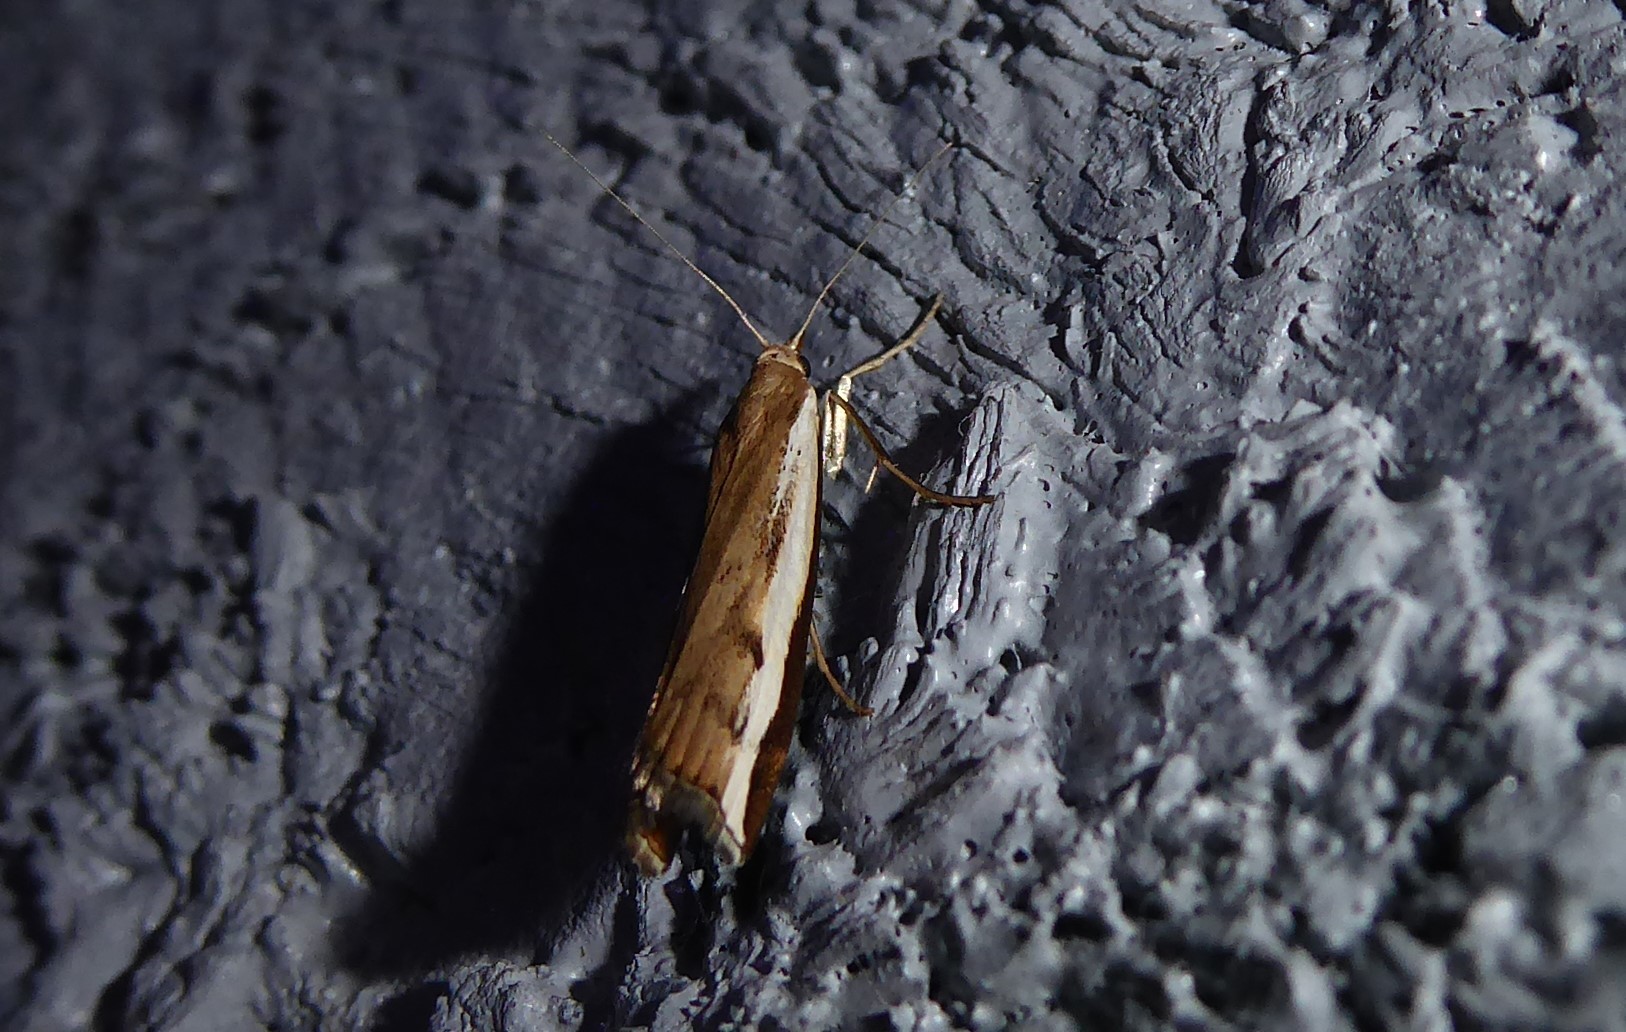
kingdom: Animalia
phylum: Arthropoda
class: Insecta
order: Lepidoptera
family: Crambidae
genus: Orocrambus
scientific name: Orocrambus flexuosellus
